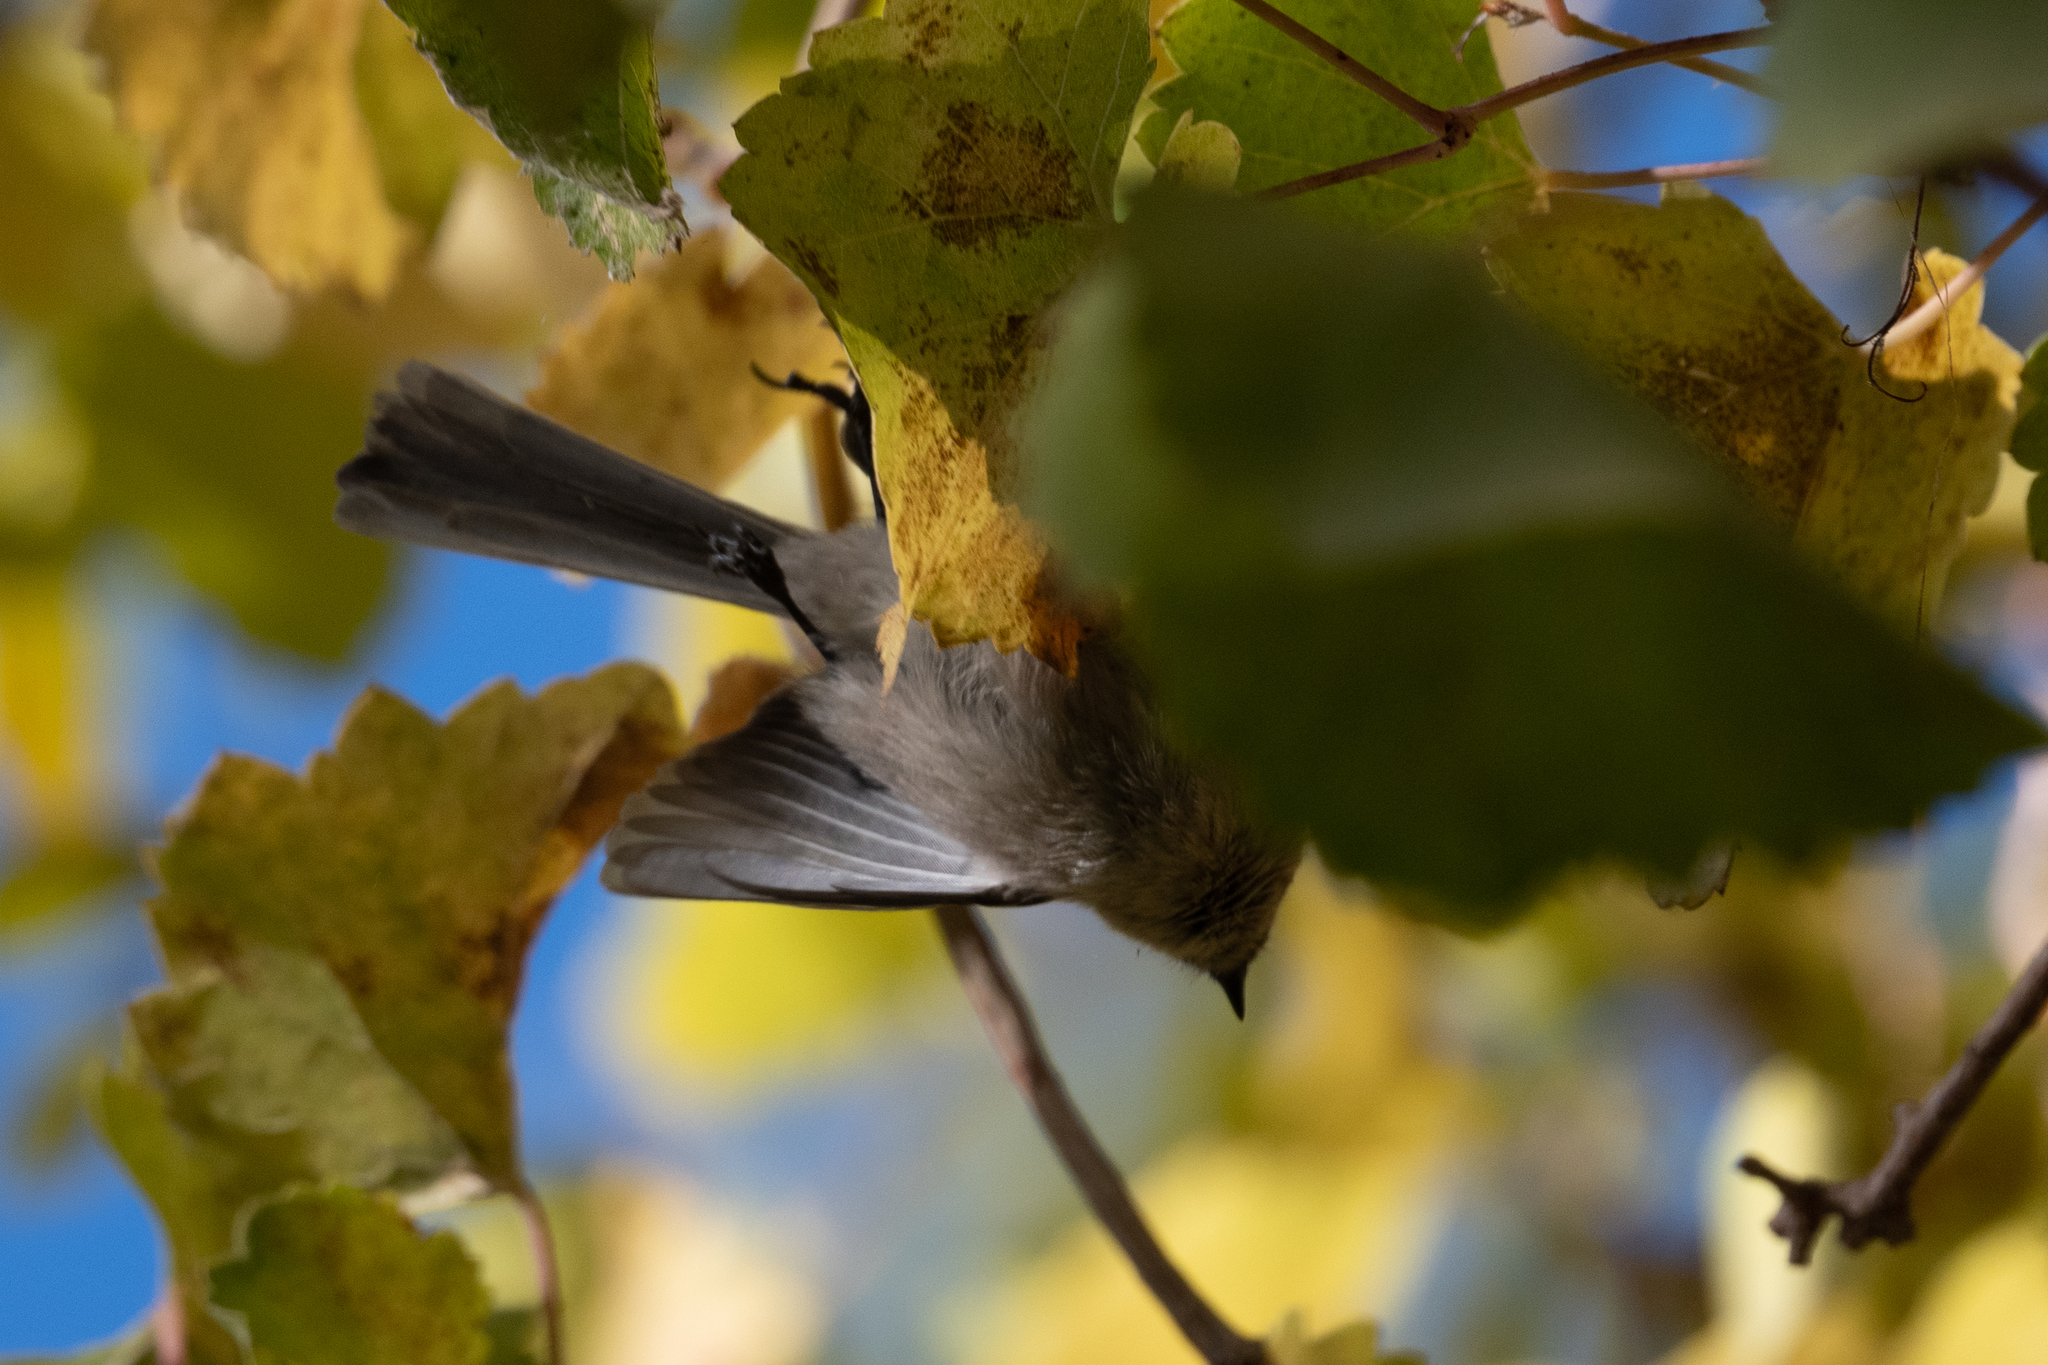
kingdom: Animalia
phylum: Chordata
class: Aves
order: Passeriformes
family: Aegithalidae
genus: Psaltriparus
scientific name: Psaltriparus minimus
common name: American bushtit
